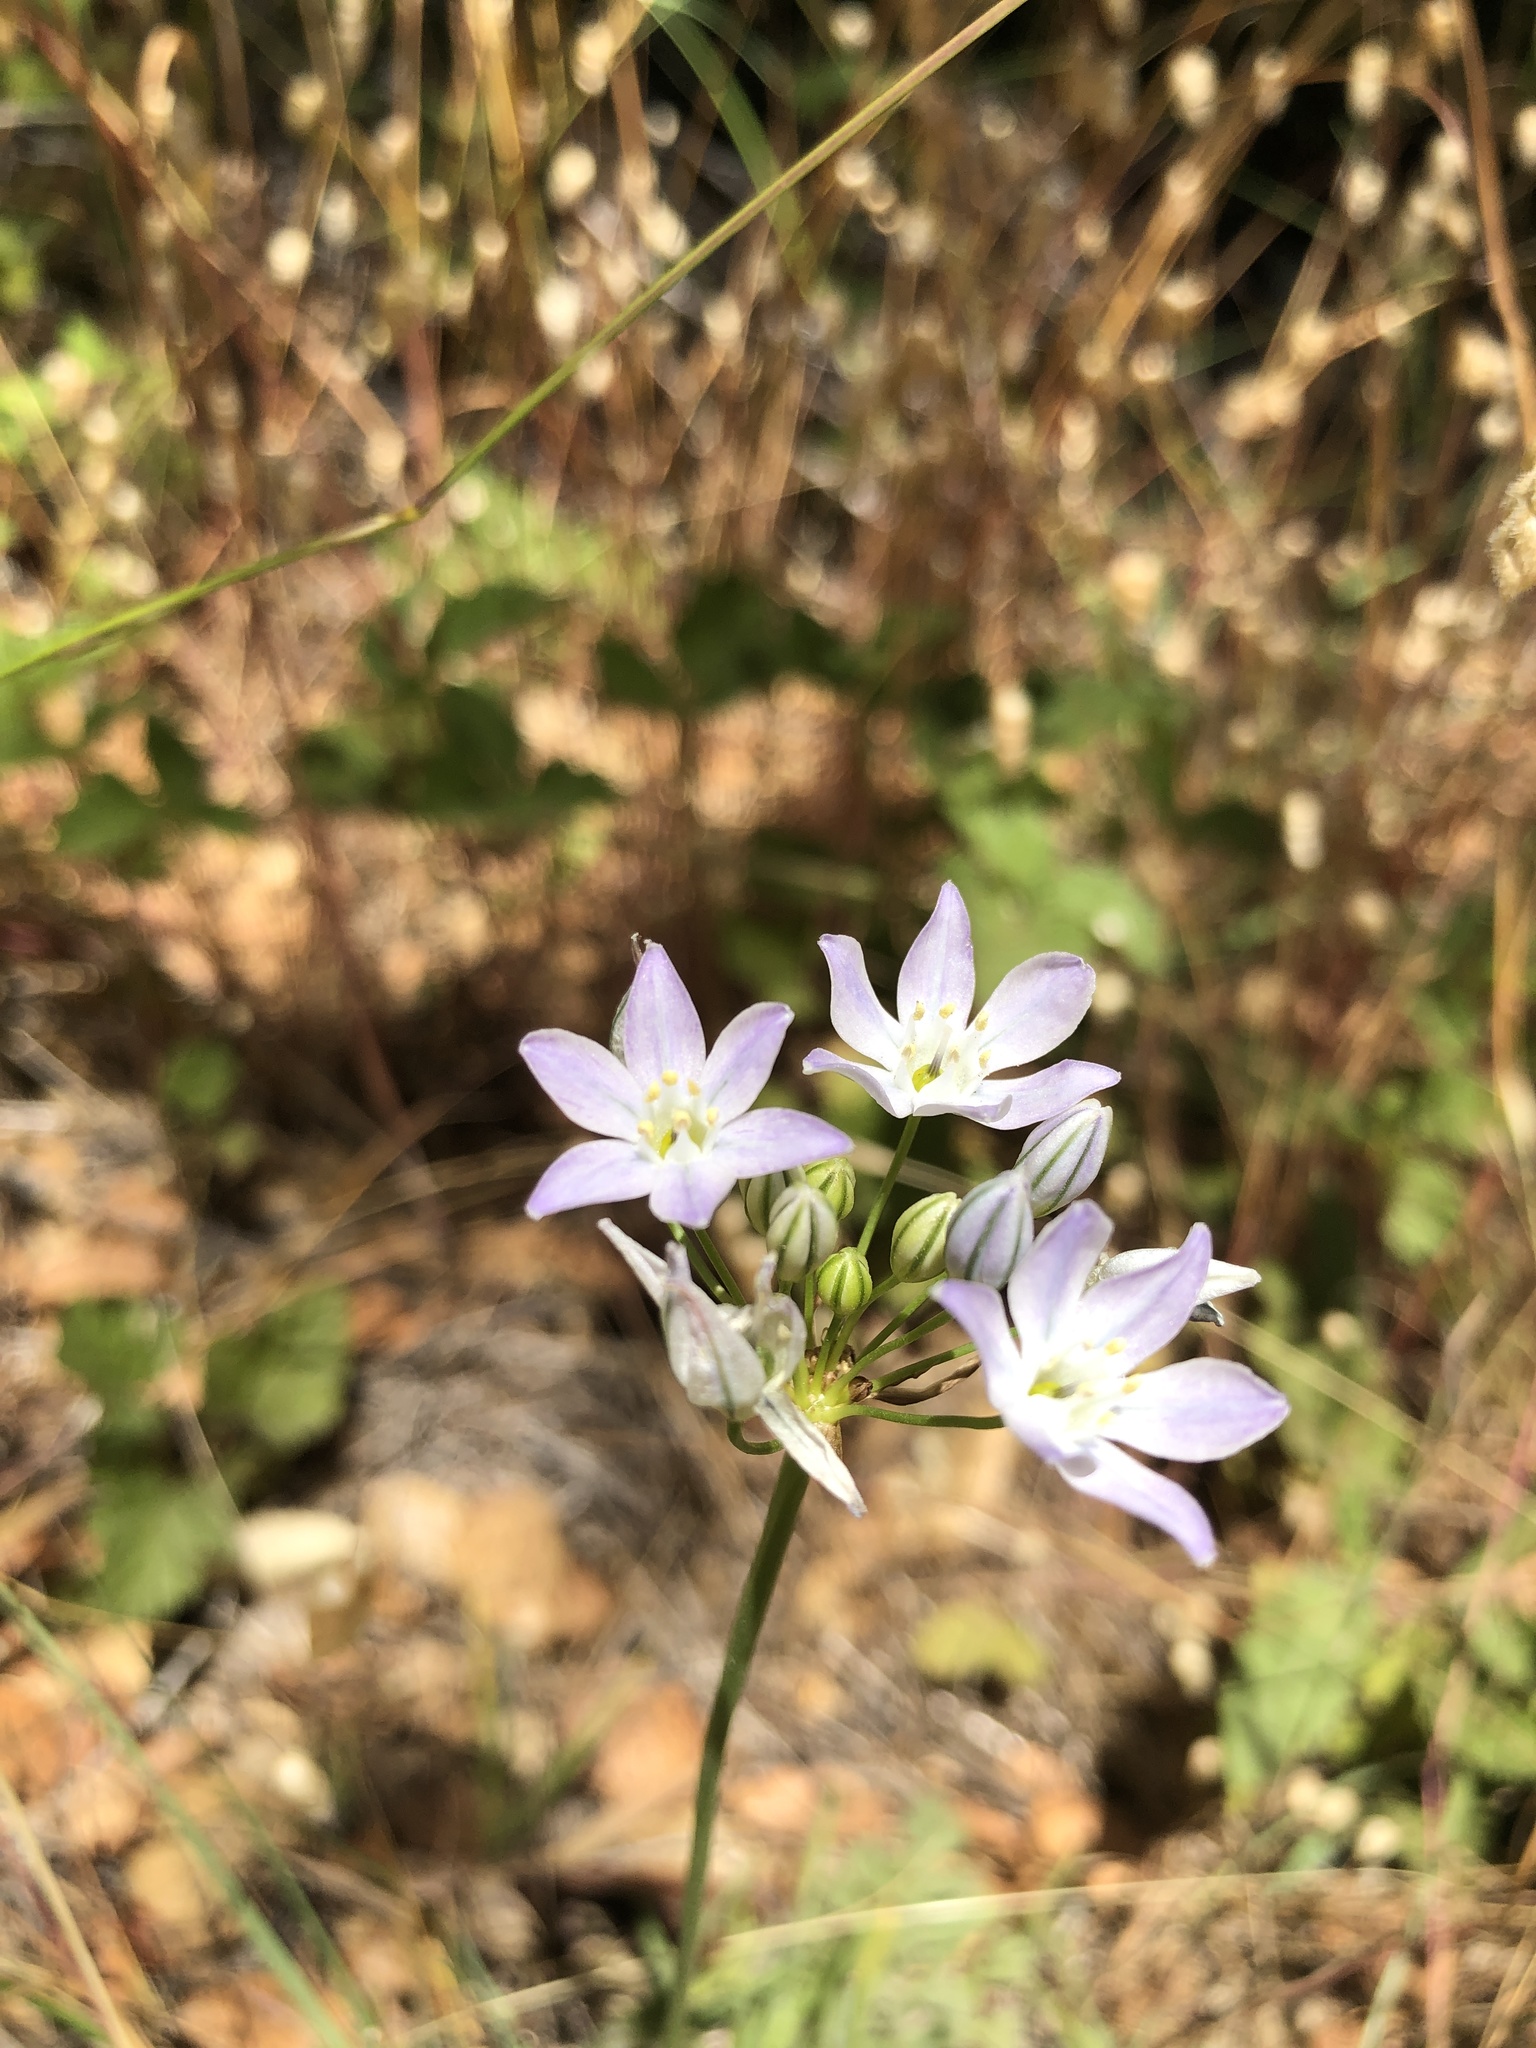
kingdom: Plantae
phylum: Tracheophyta
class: Liliopsida
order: Asparagales
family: Asparagaceae
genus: Triteleia
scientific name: Triteleia hyacinthina
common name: White brodiaea
